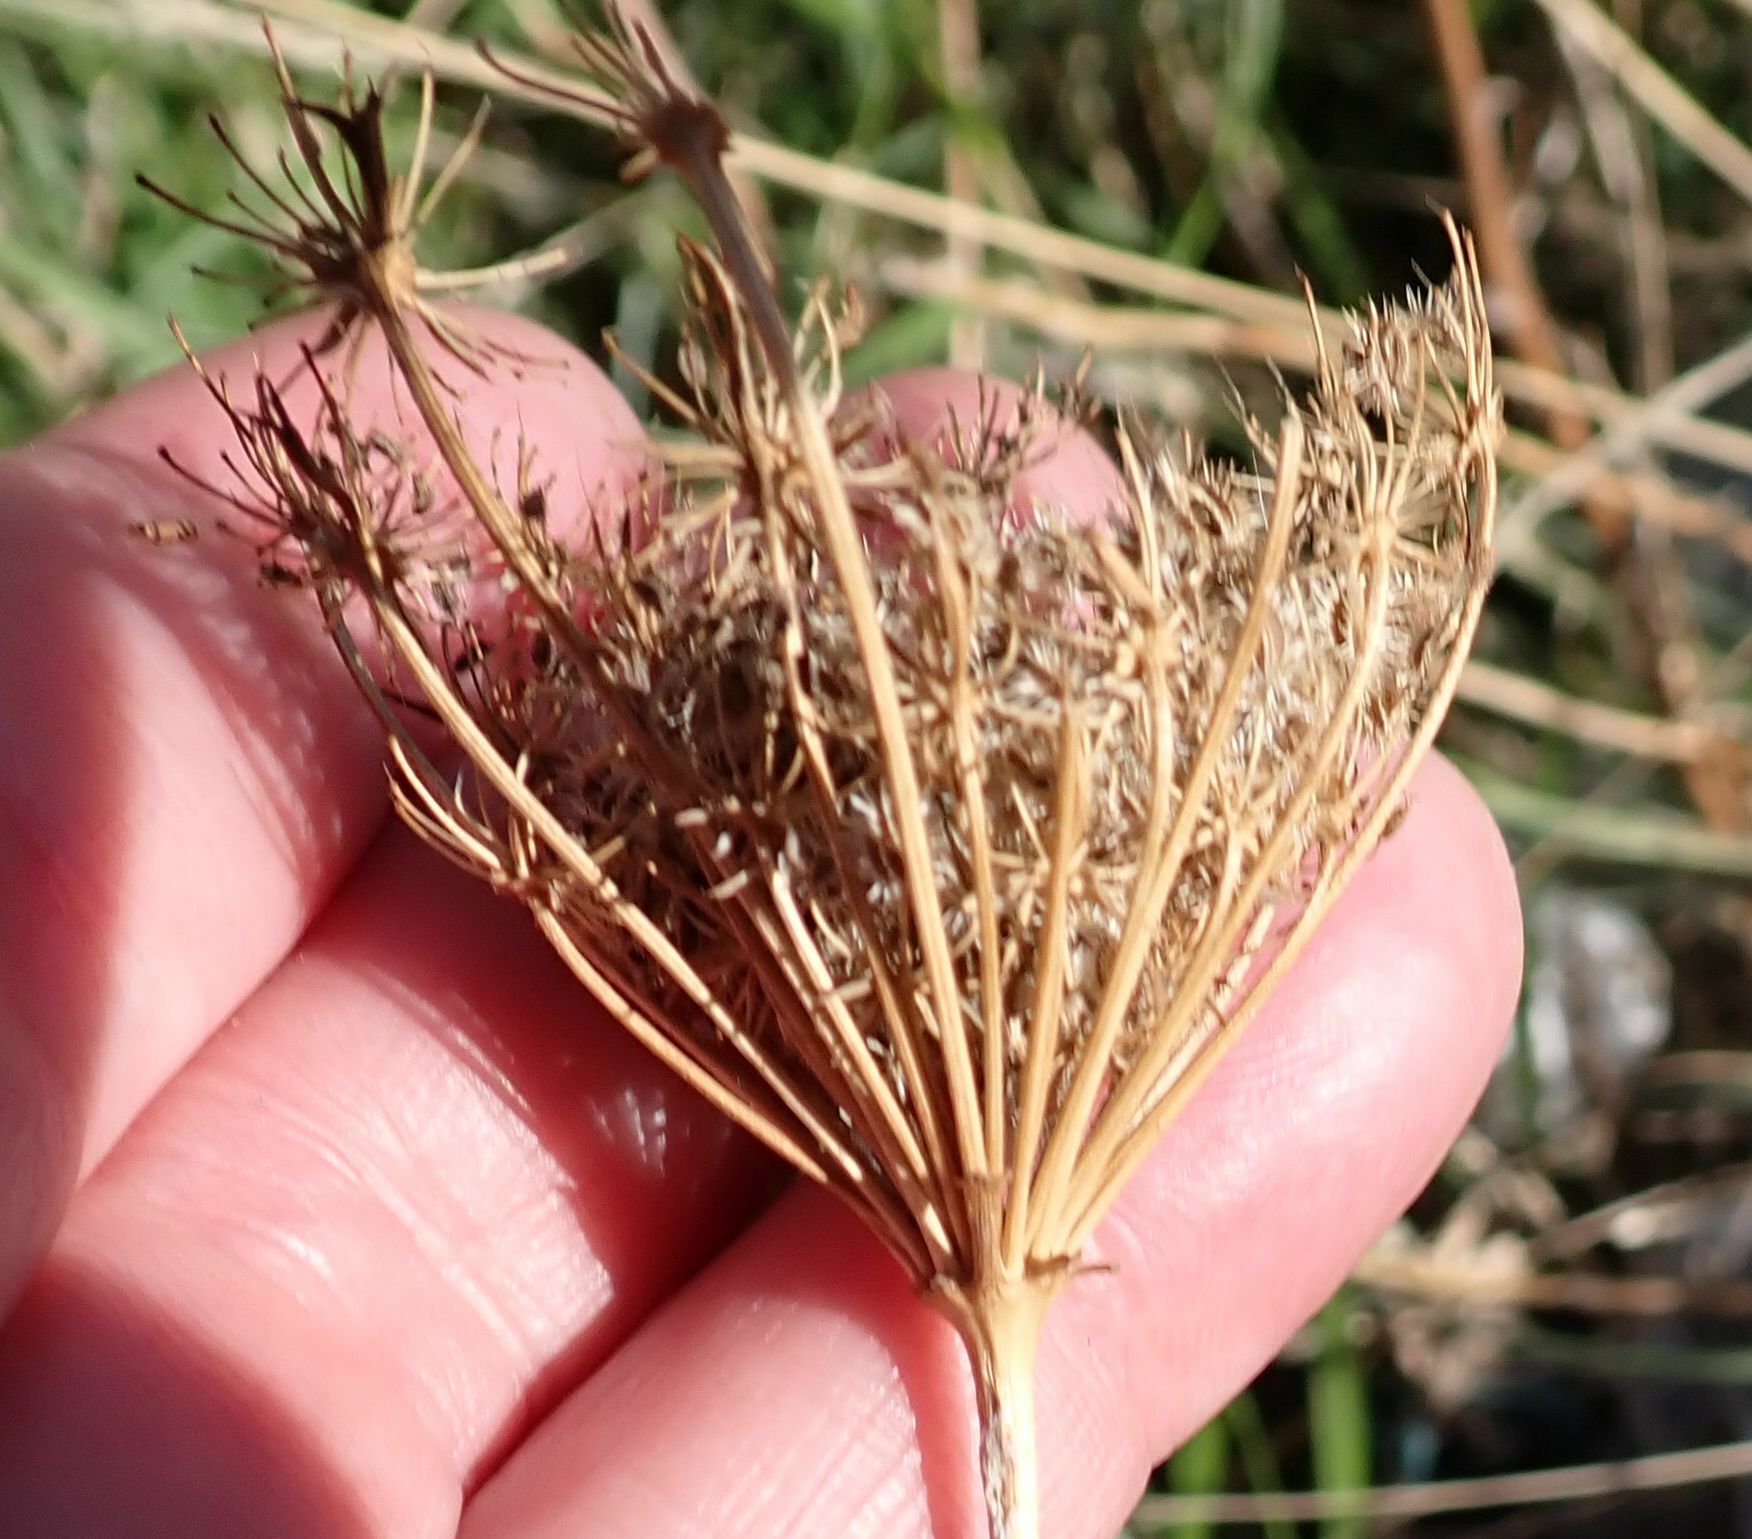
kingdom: Plantae
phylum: Tracheophyta
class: Magnoliopsida
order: Apiales
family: Apiaceae
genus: Daucus
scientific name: Daucus carota
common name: Wild carrot
